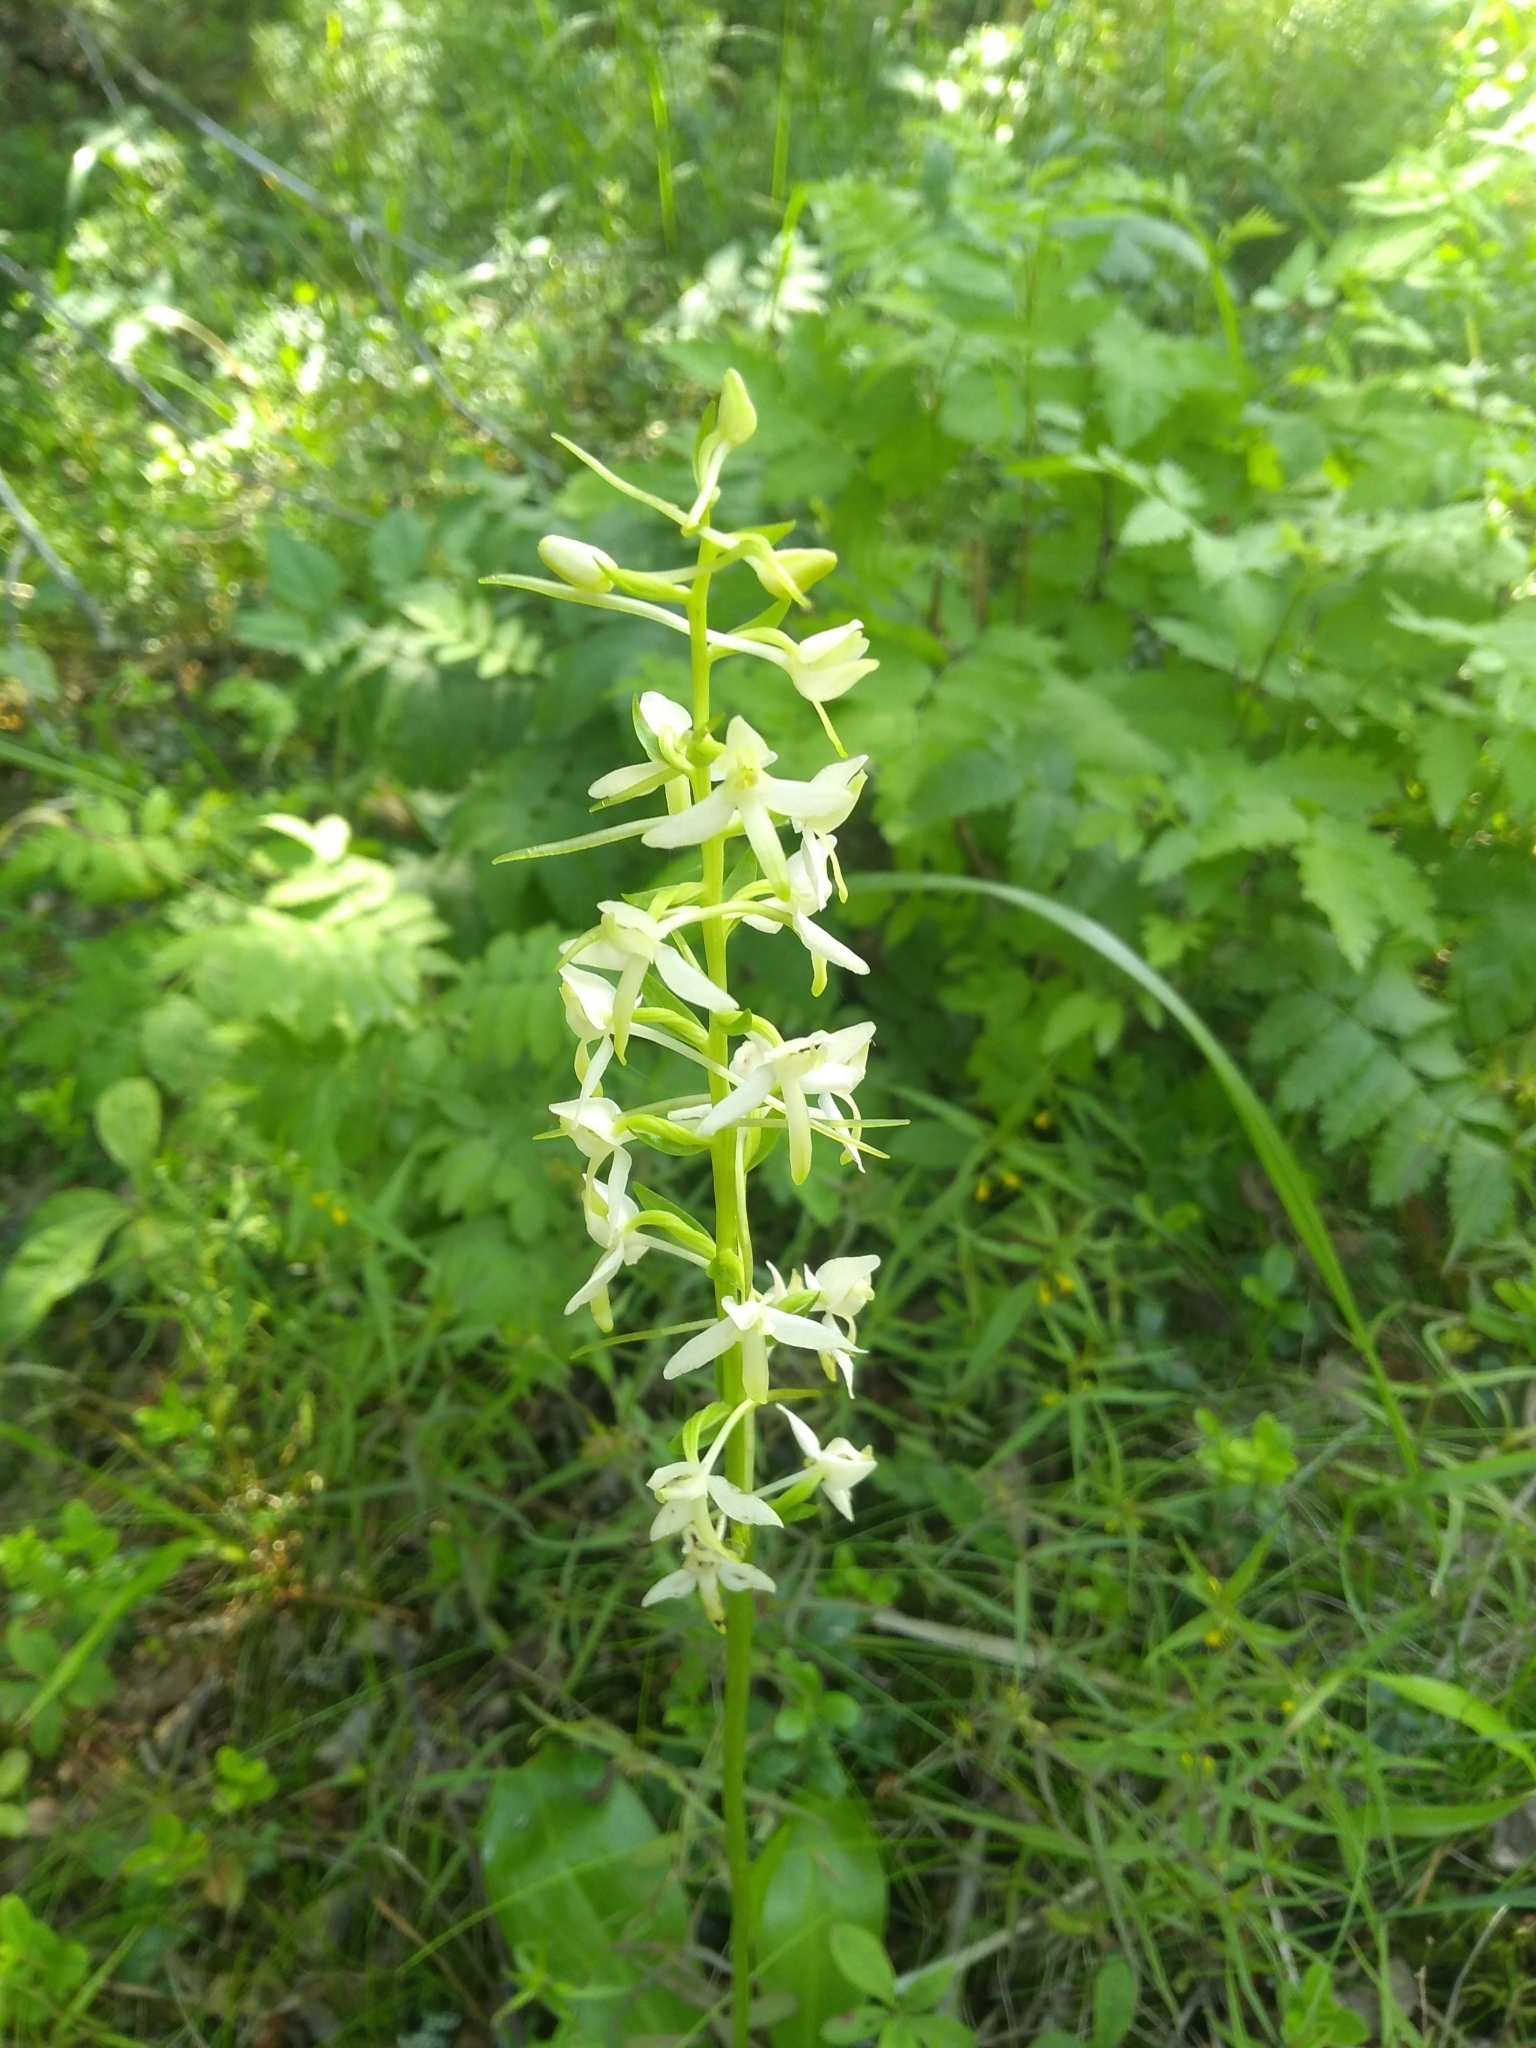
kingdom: Plantae
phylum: Tracheophyta
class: Liliopsida
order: Asparagales
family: Orchidaceae
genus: Platanthera
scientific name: Platanthera bifolia
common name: Lesser butterfly-orchid
